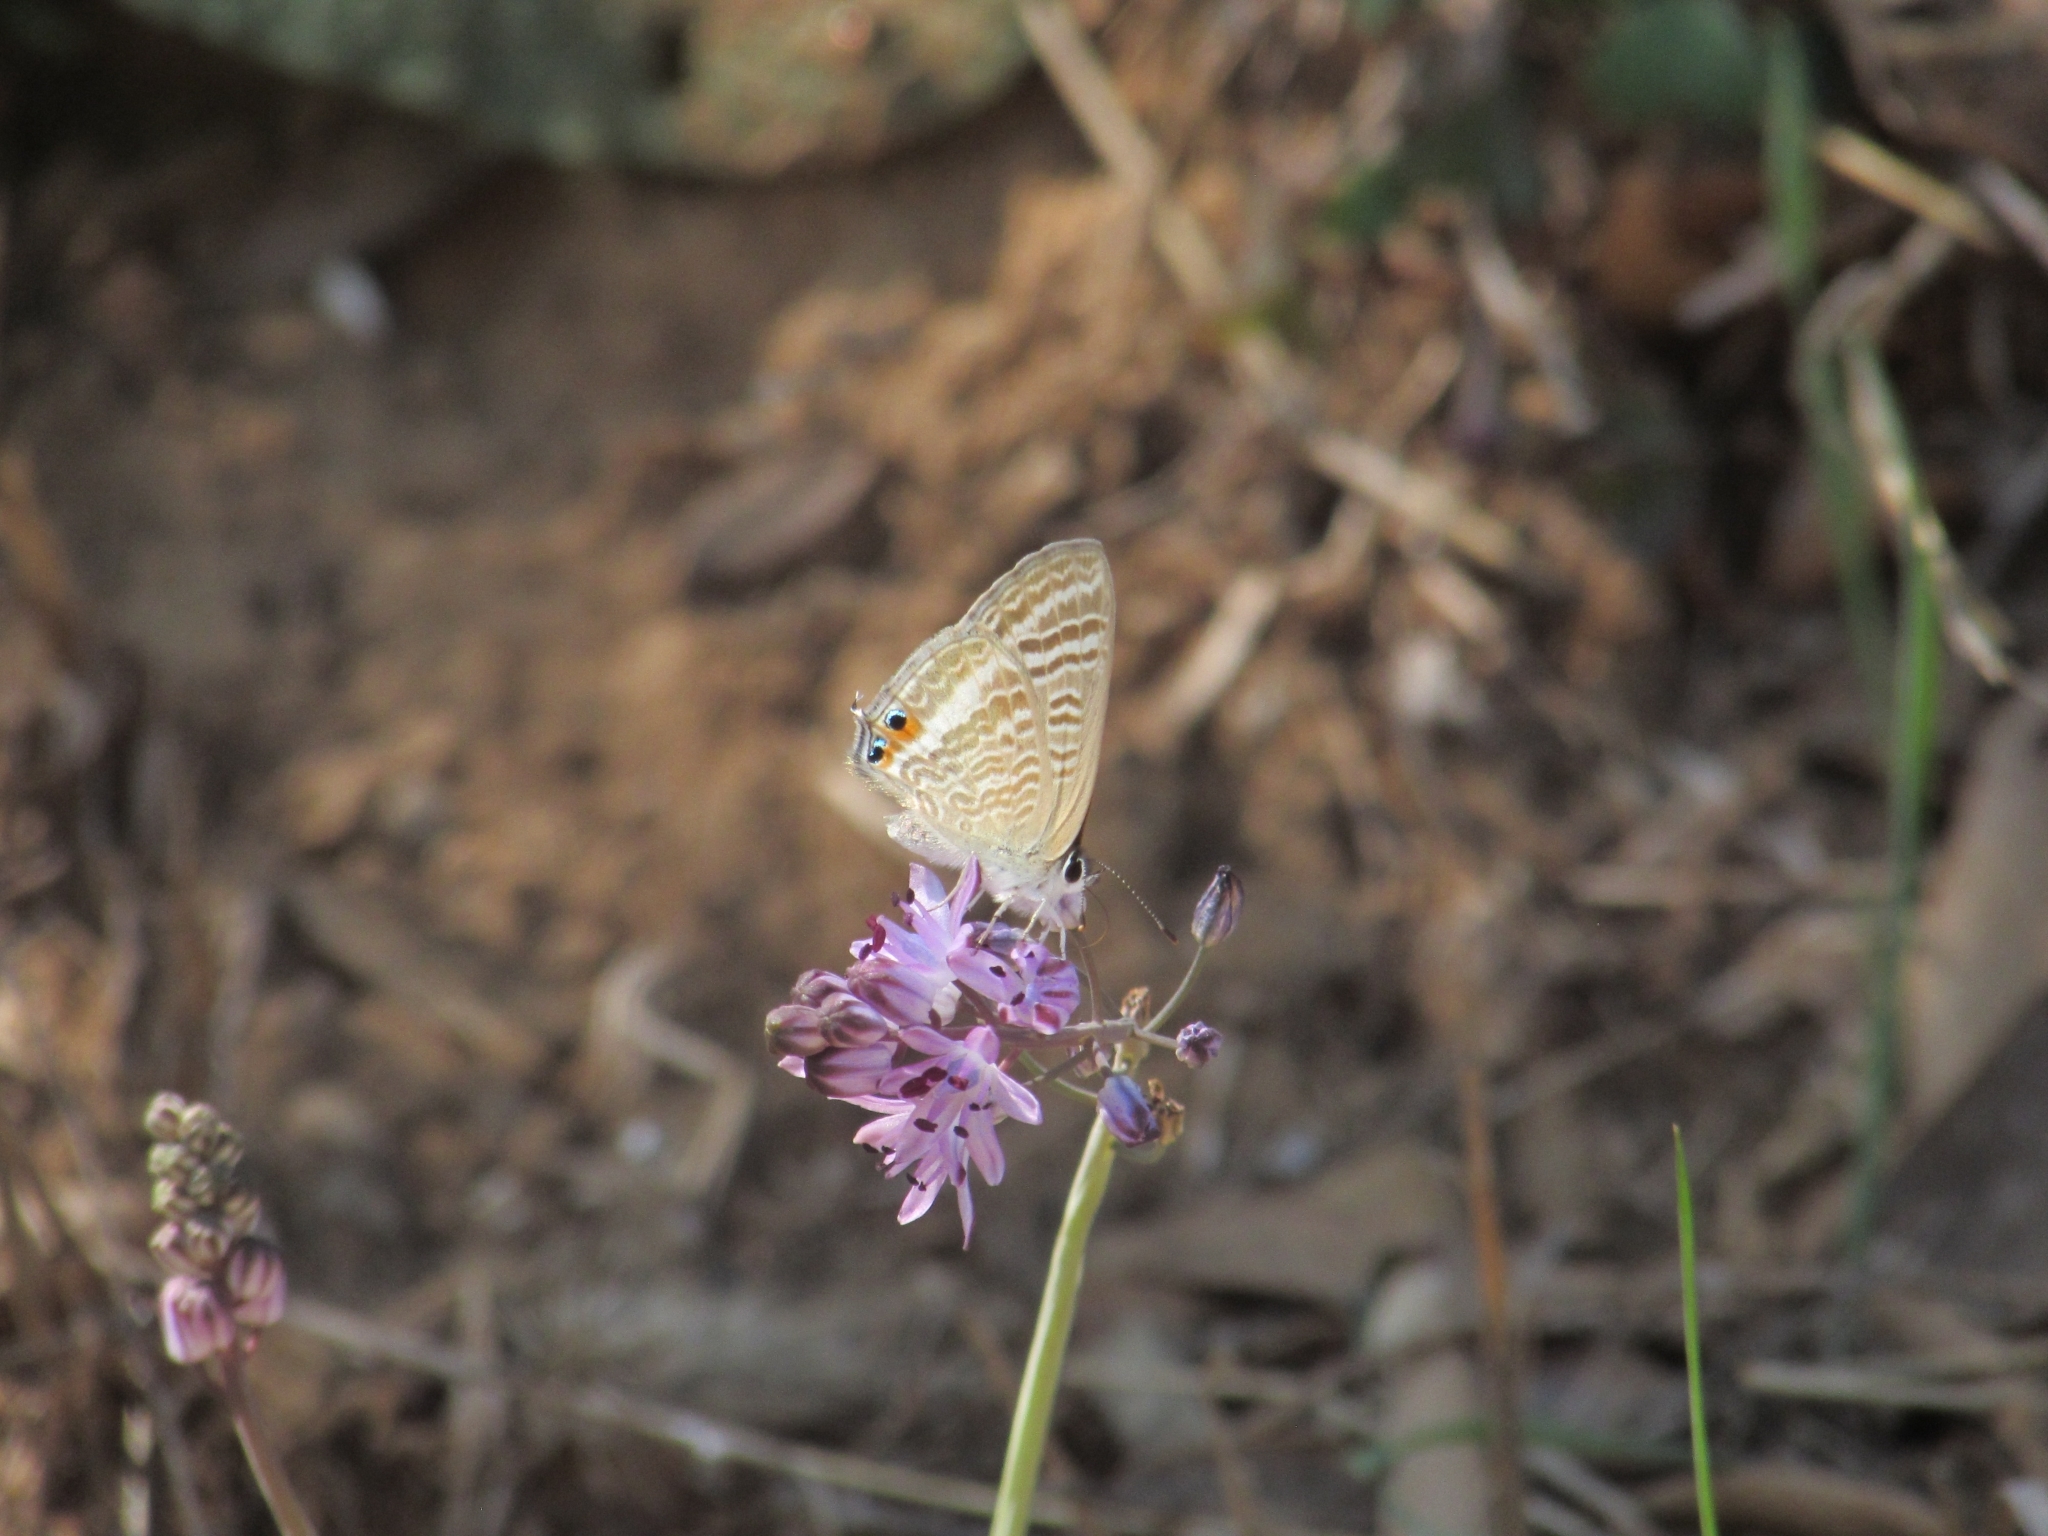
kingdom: Animalia
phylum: Arthropoda
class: Insecta
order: Lepidoptera
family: Lycaenidae
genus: Lampides
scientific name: Lampides boeticus
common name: Long-tailed blue
